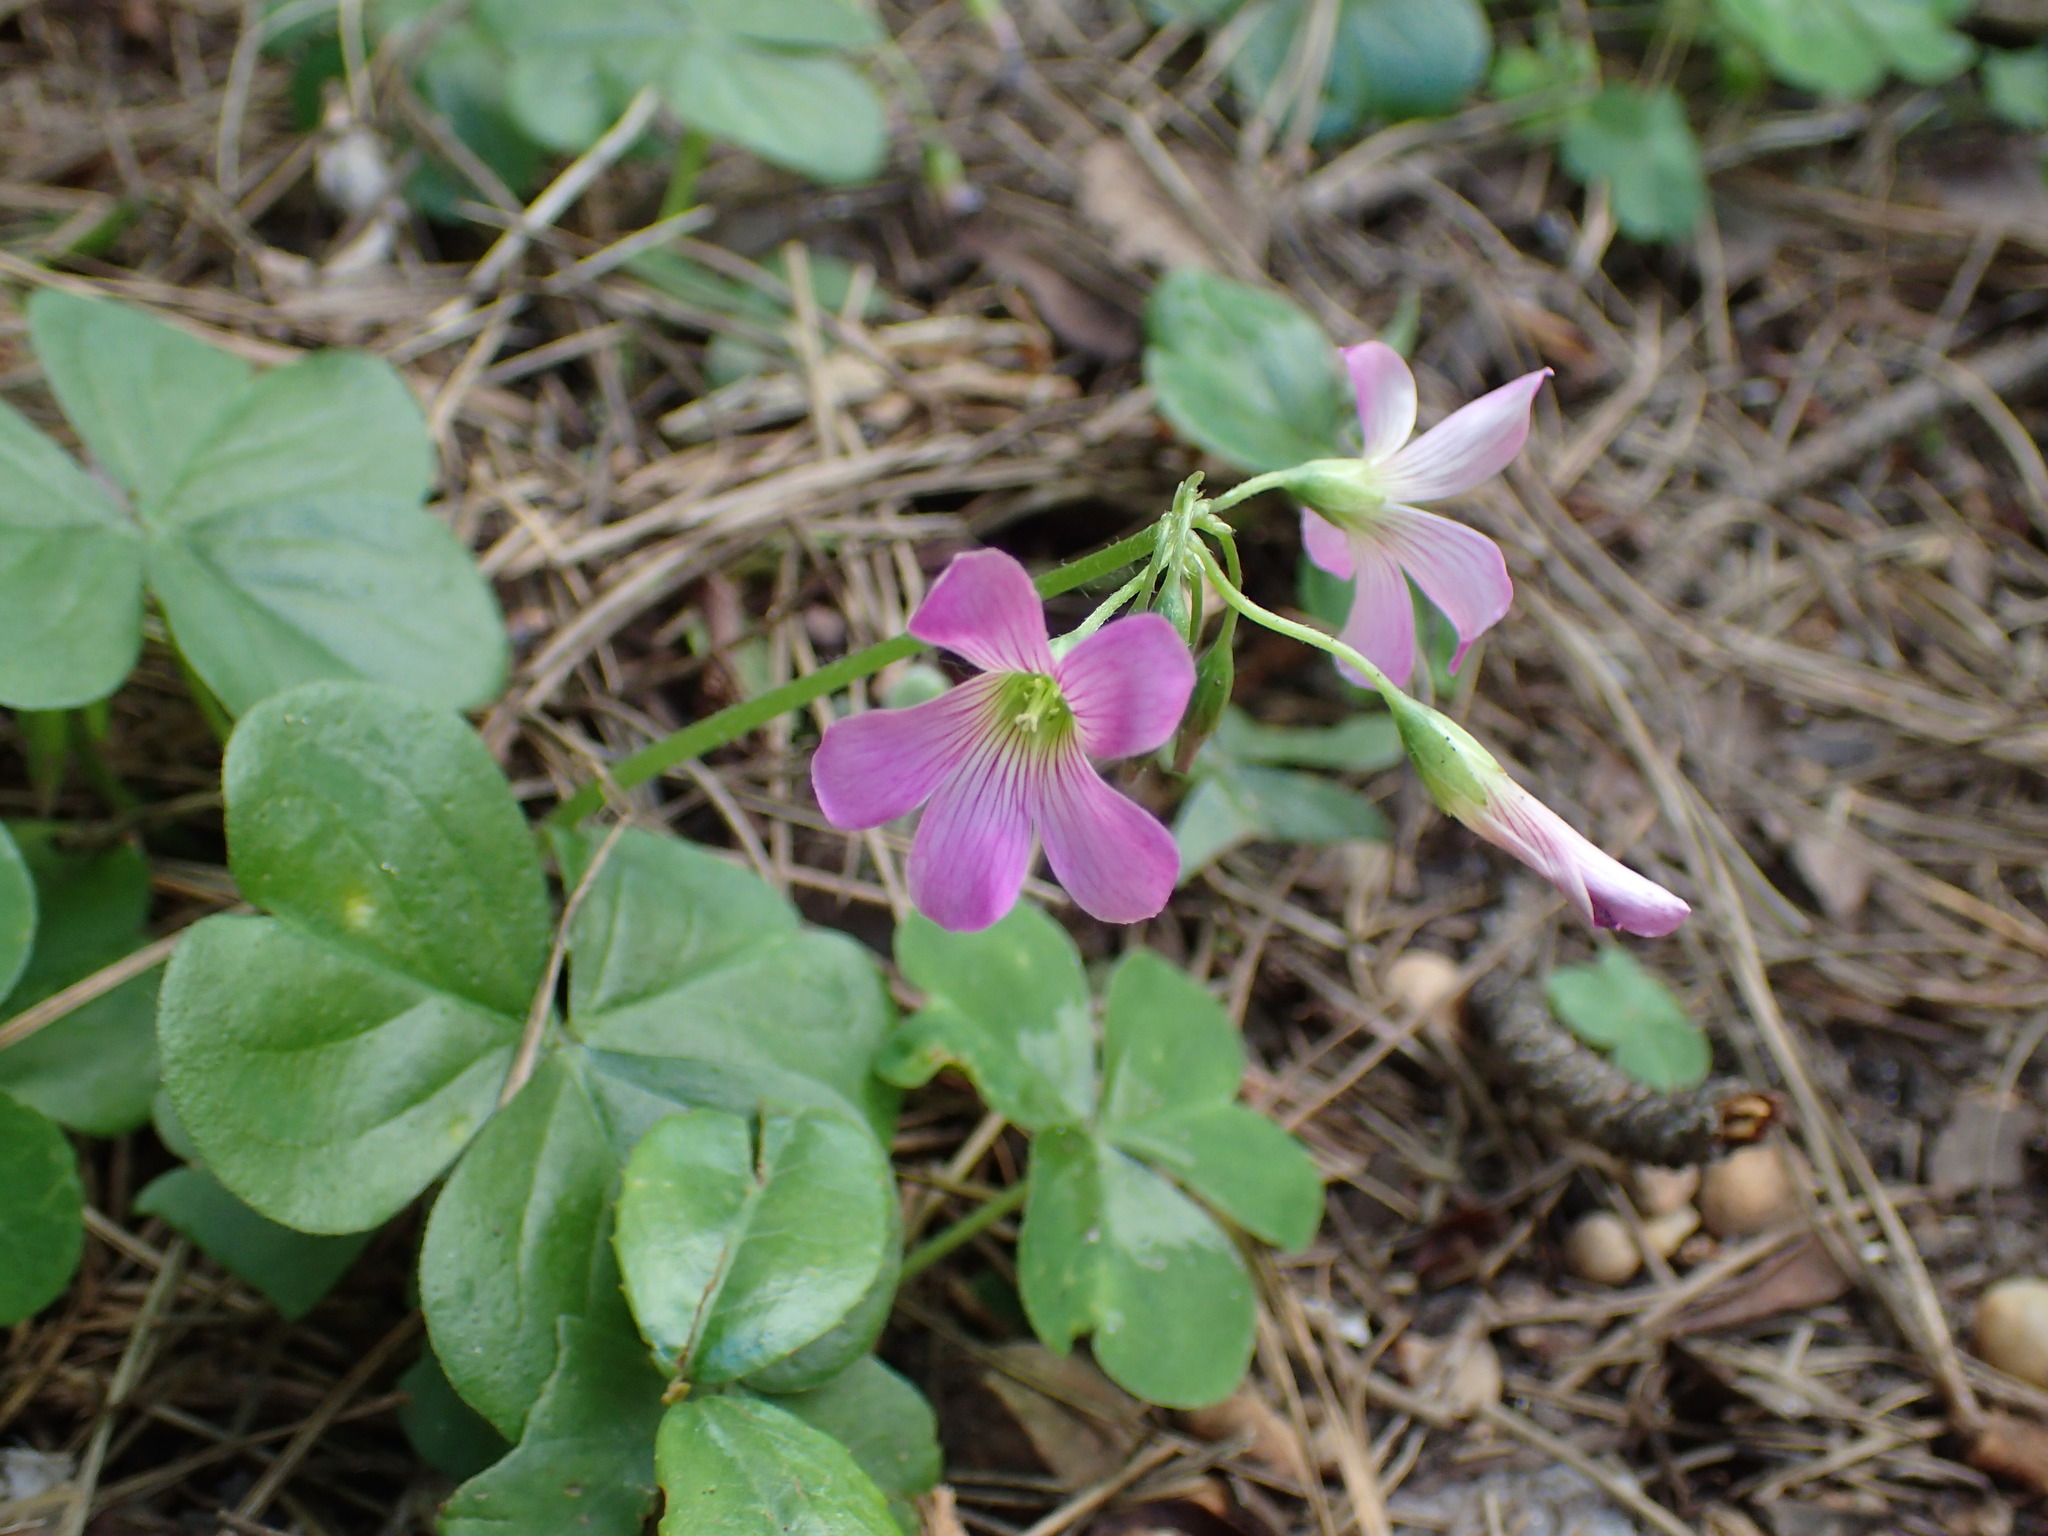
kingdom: Plantae
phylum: Tracheophyta
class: Magnoliopsida
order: Oxalidales
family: Oxalidaceae
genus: Oxalis
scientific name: Oxalis debilis
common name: Large-flowered pink-sorrel
